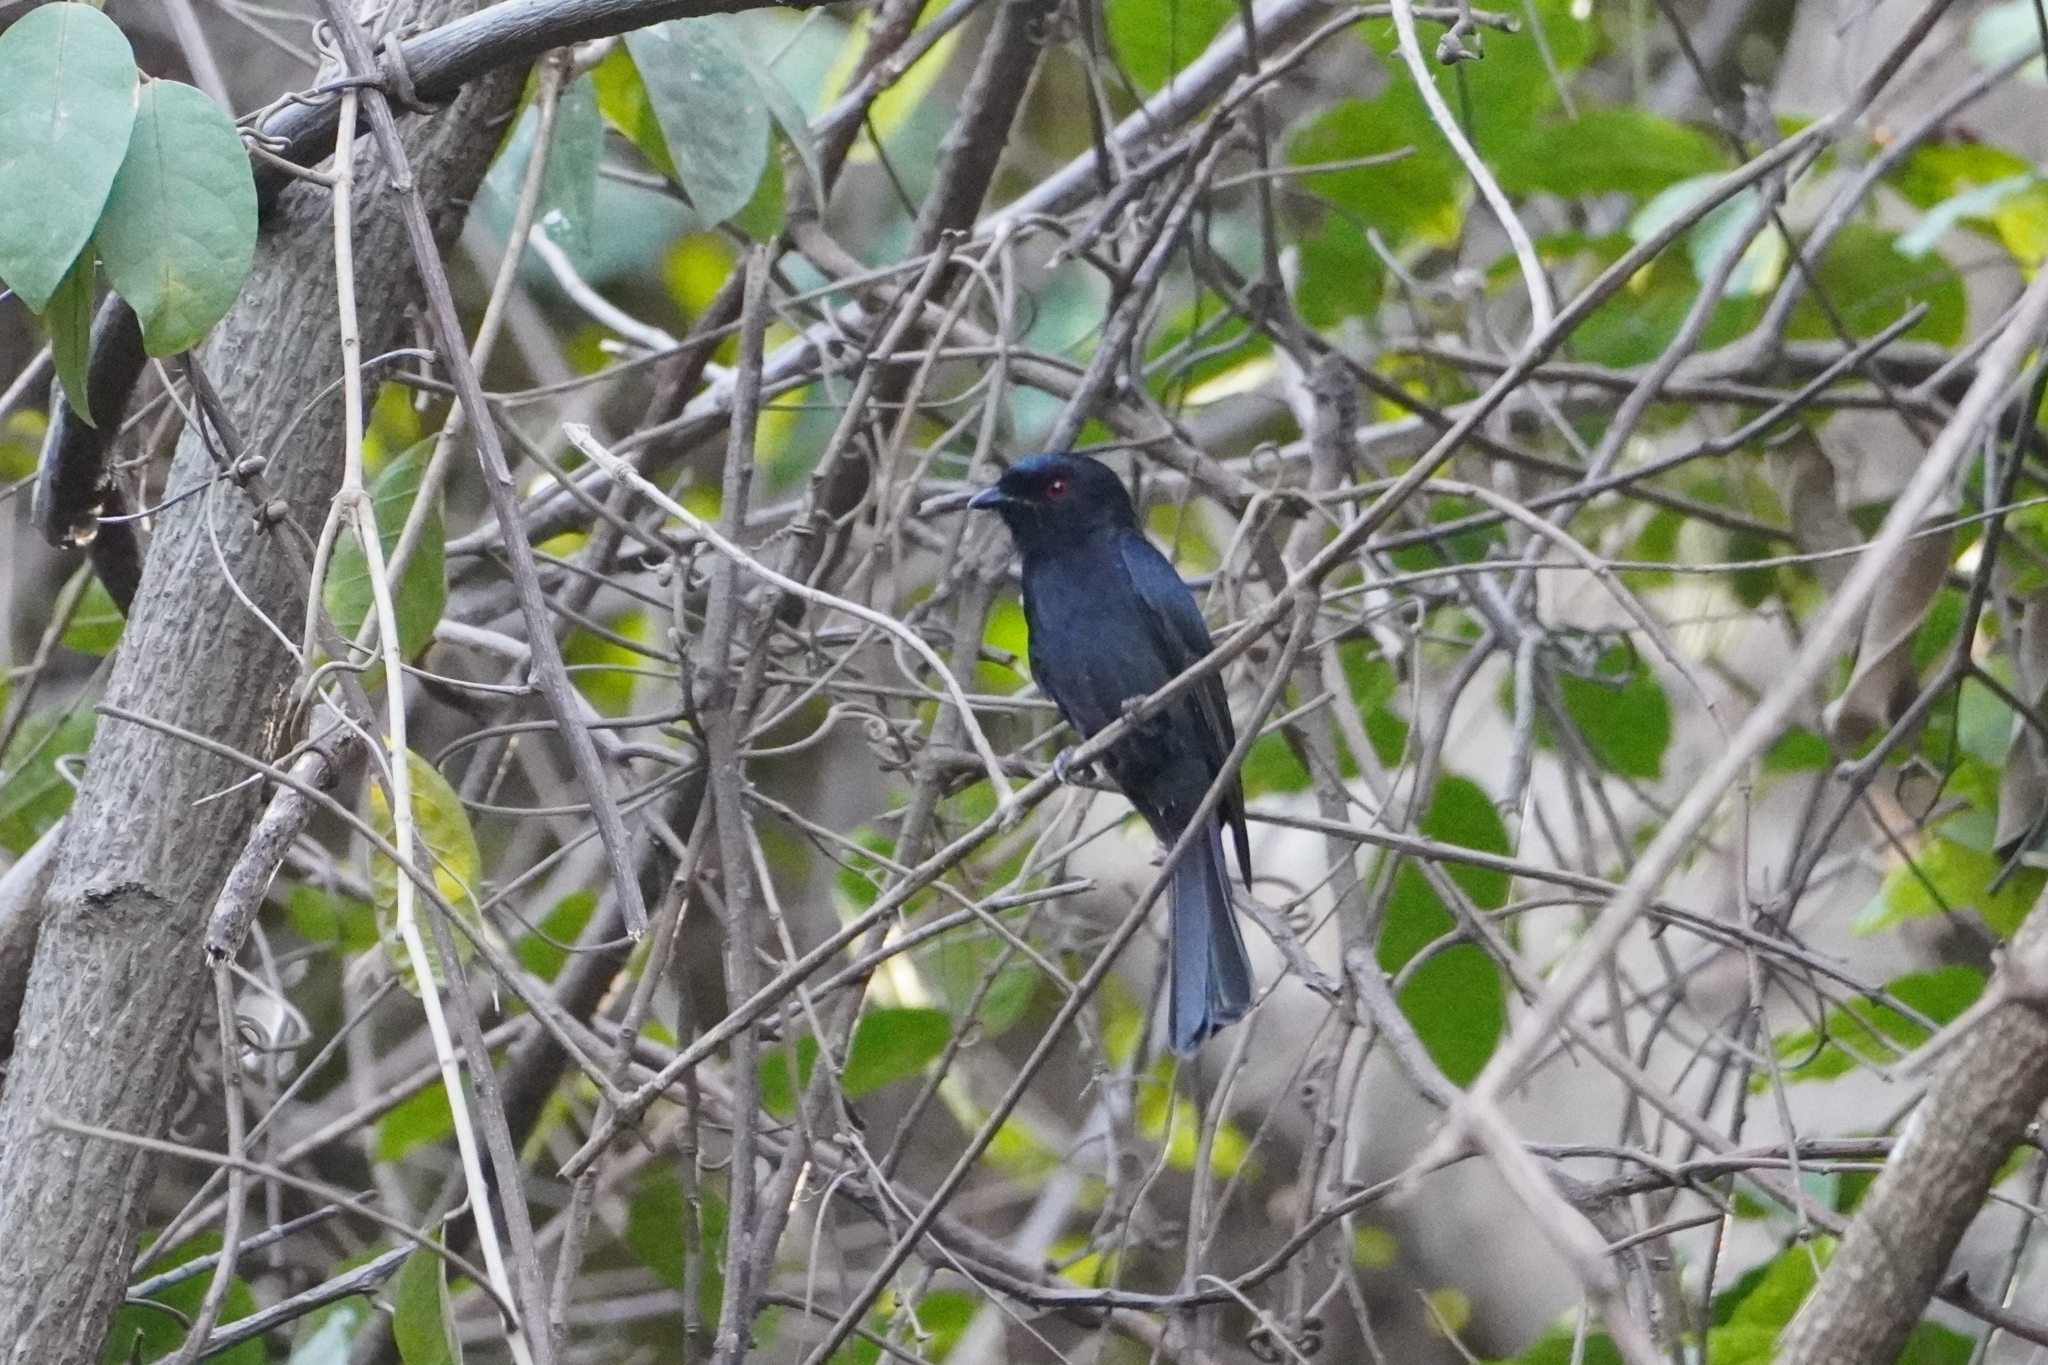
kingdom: Animalia
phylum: Chordata
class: Aves
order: Passeriformes
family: Dicruridae
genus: Dicrurus
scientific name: Dicrurus adsimilis
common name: Fork-tailed drongo
